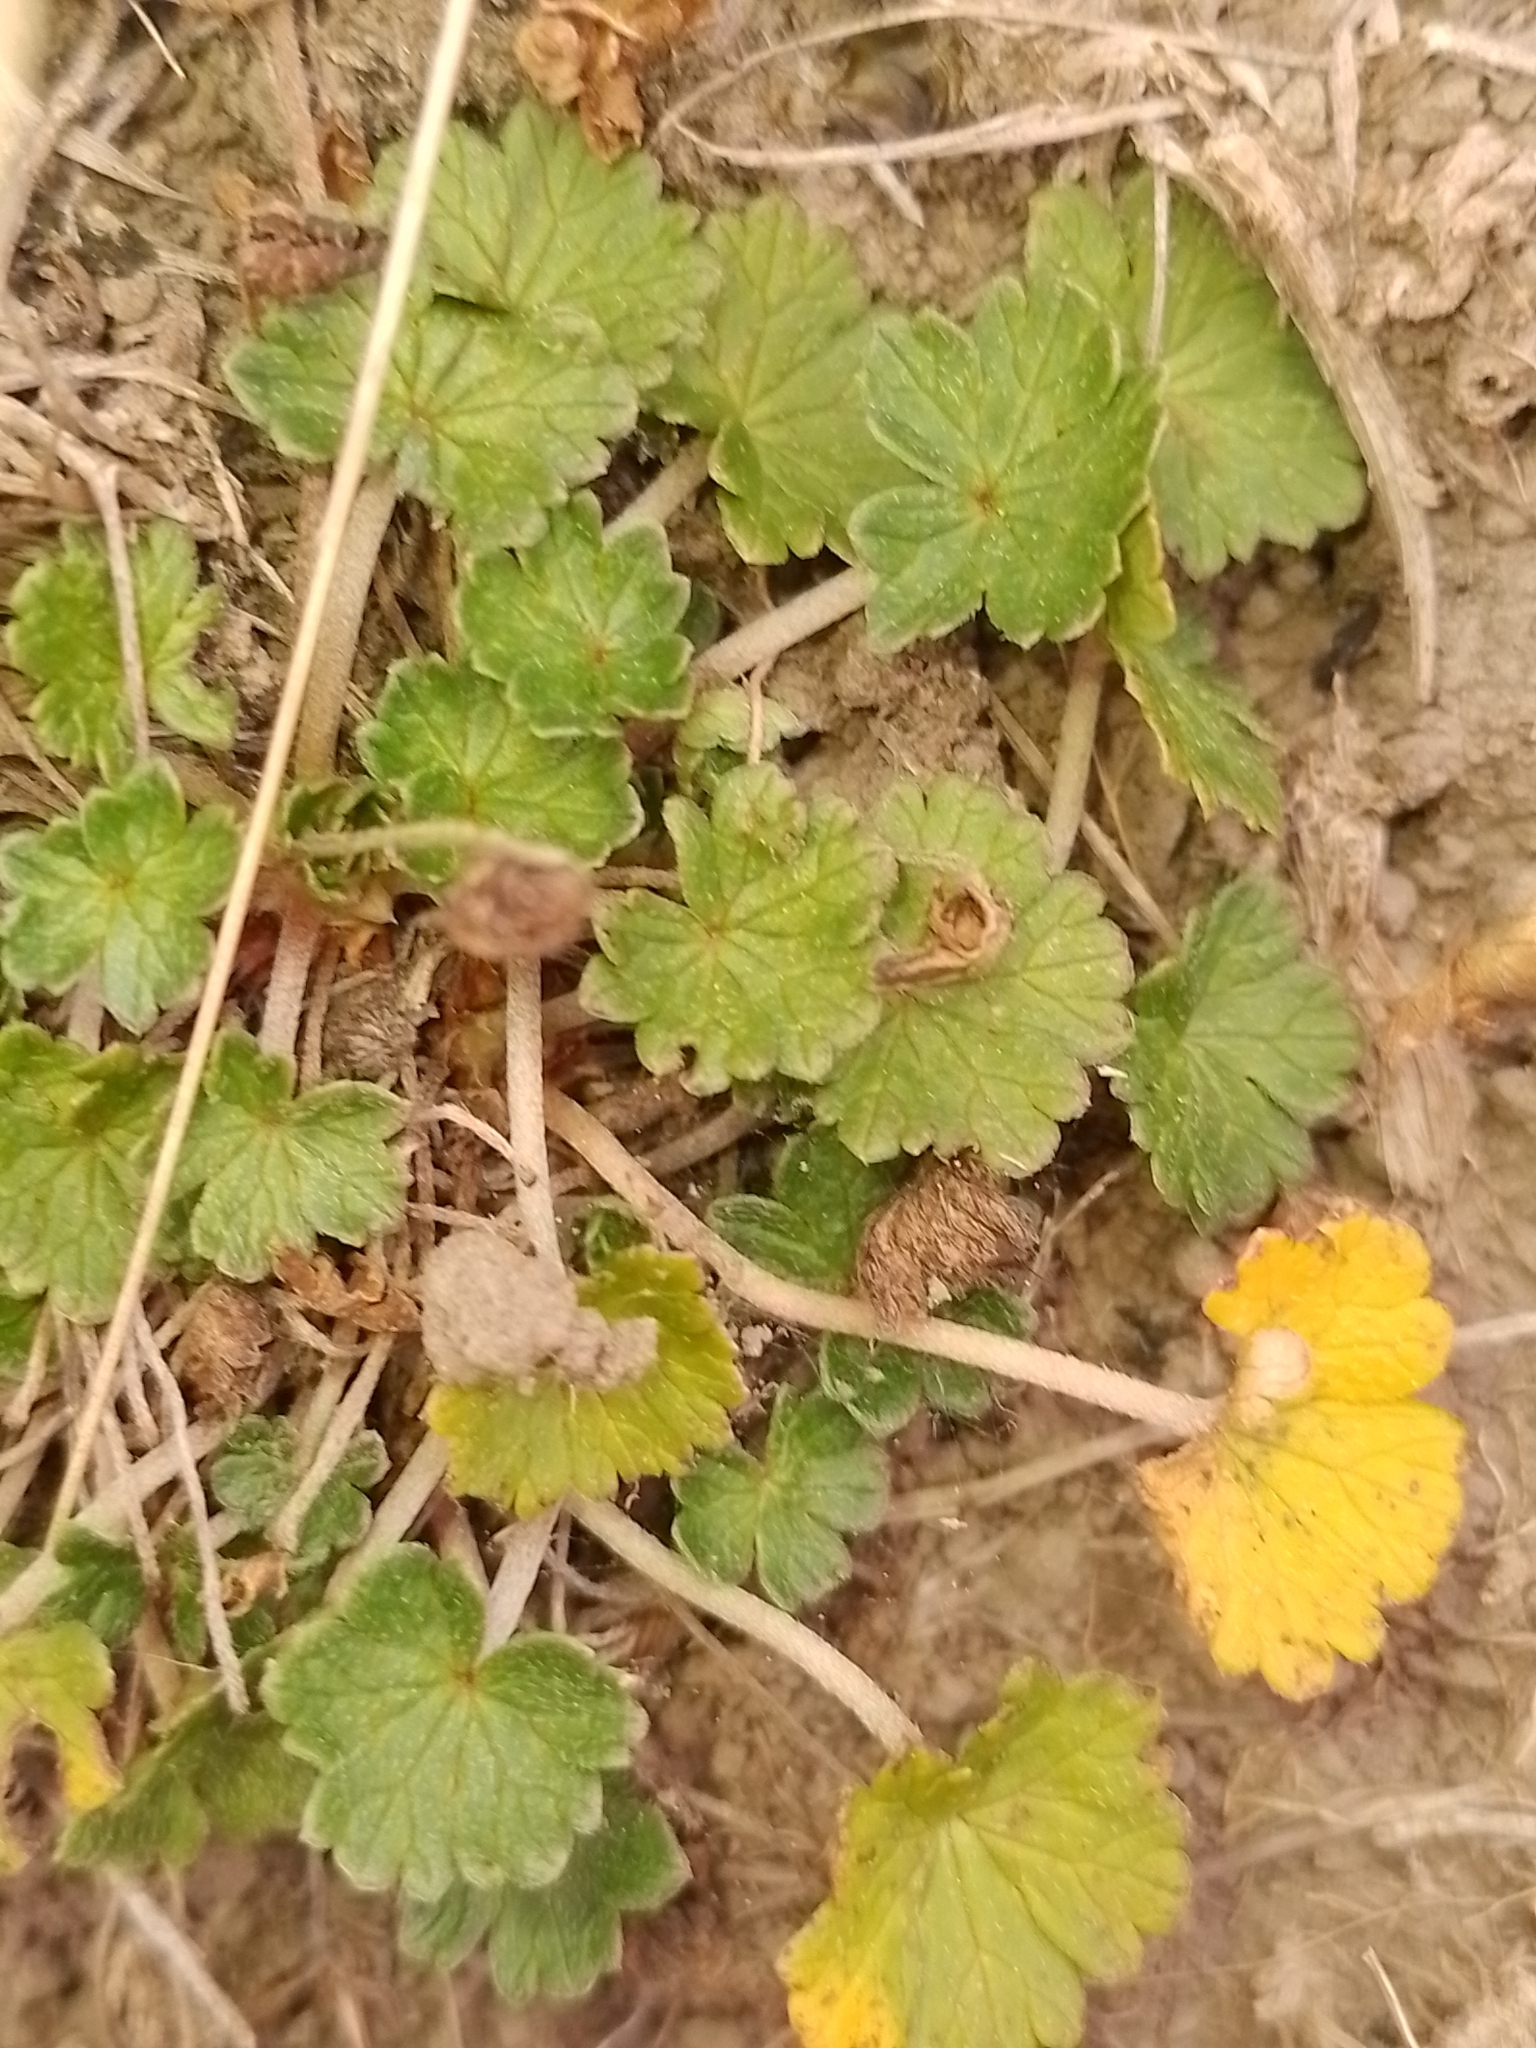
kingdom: Plantae
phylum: Tracheophyta
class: Magnoliopsida
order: Geraniales
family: Geraniaceae
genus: Geranium
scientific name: Geranium brevicaule
